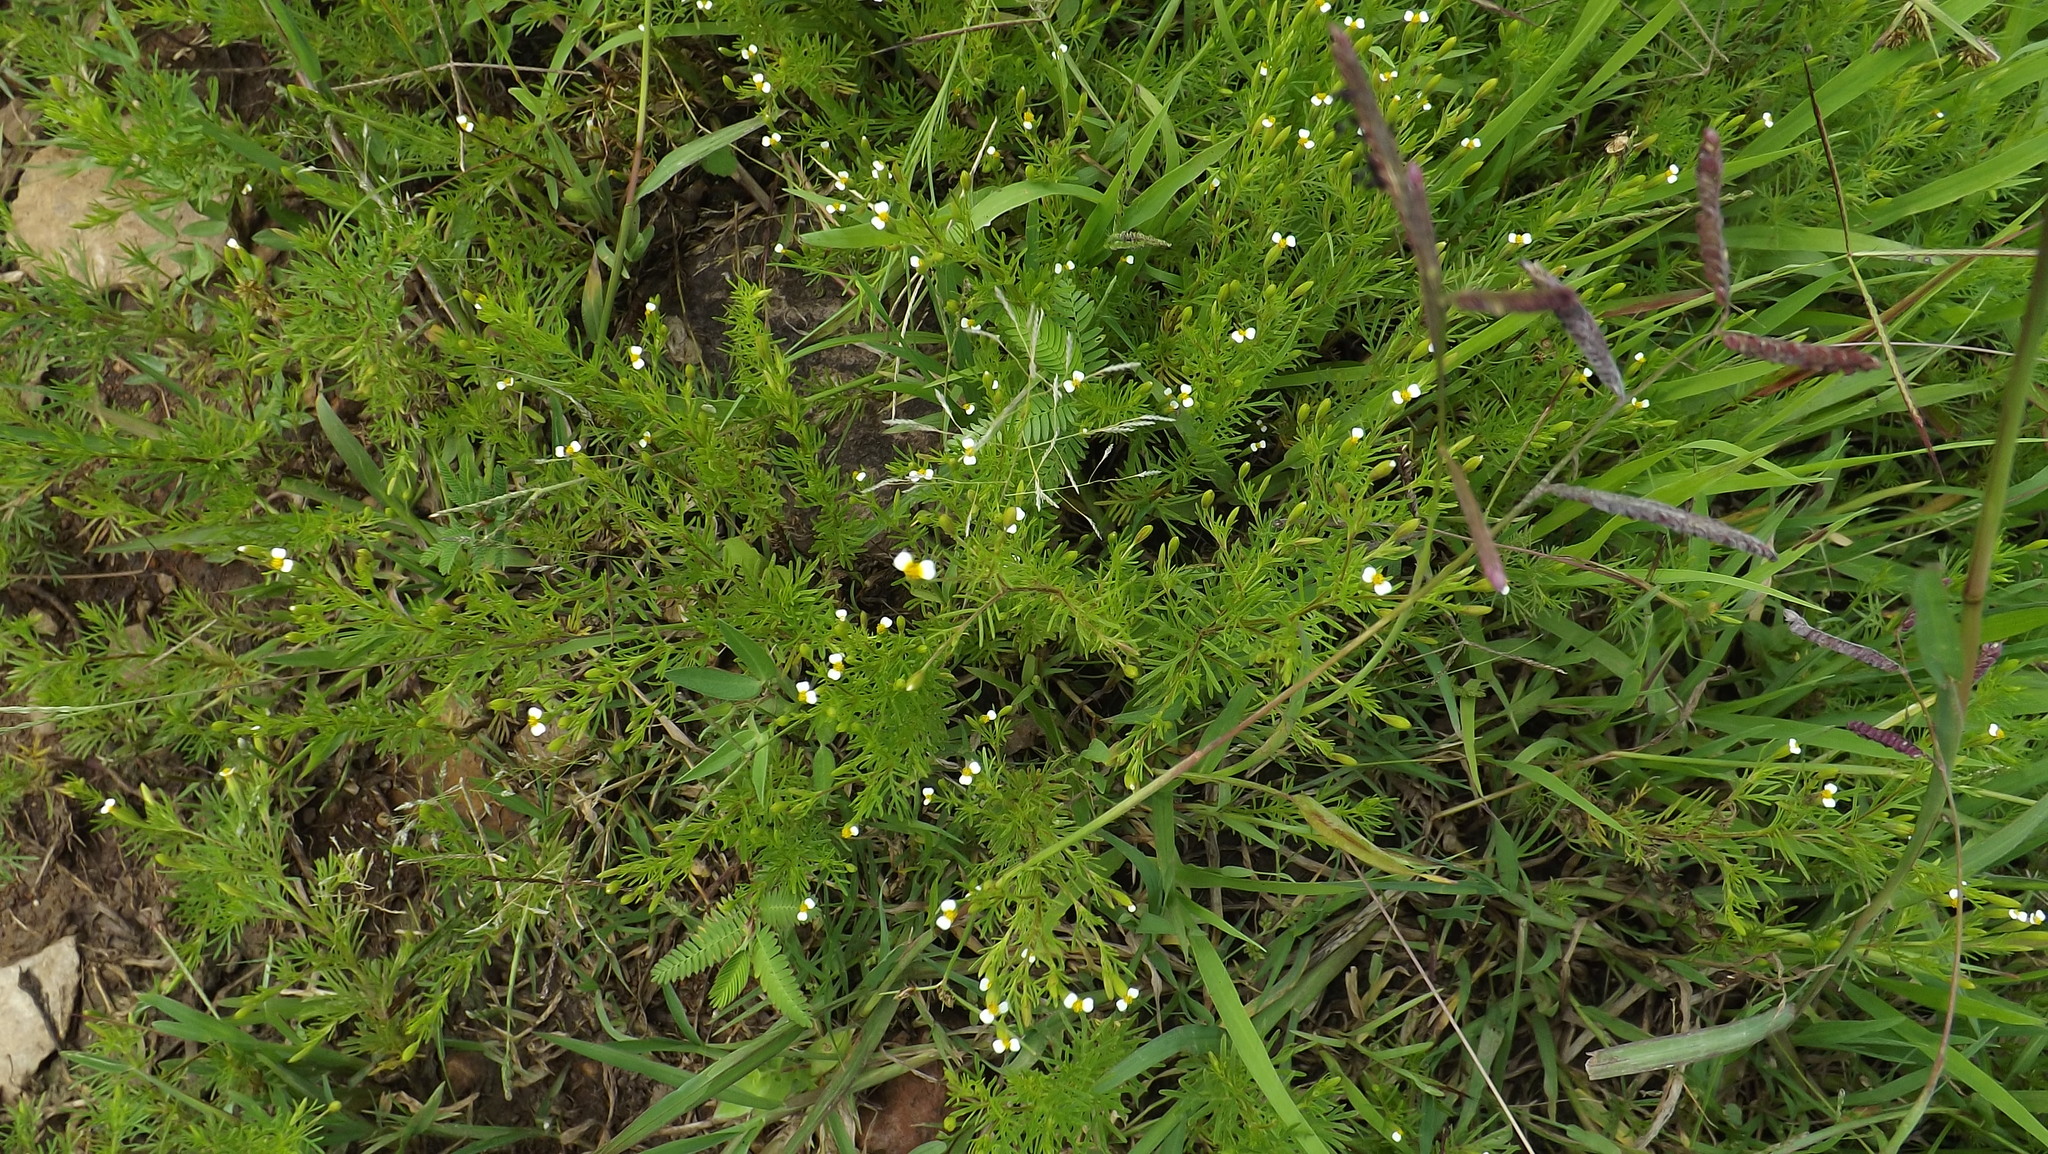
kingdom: Plantae
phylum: Tracheophyta
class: Magnoliopsida
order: Asterales
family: Asteraceae
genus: Tagetes
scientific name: Tagetes filifolia
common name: Lesser marigold
